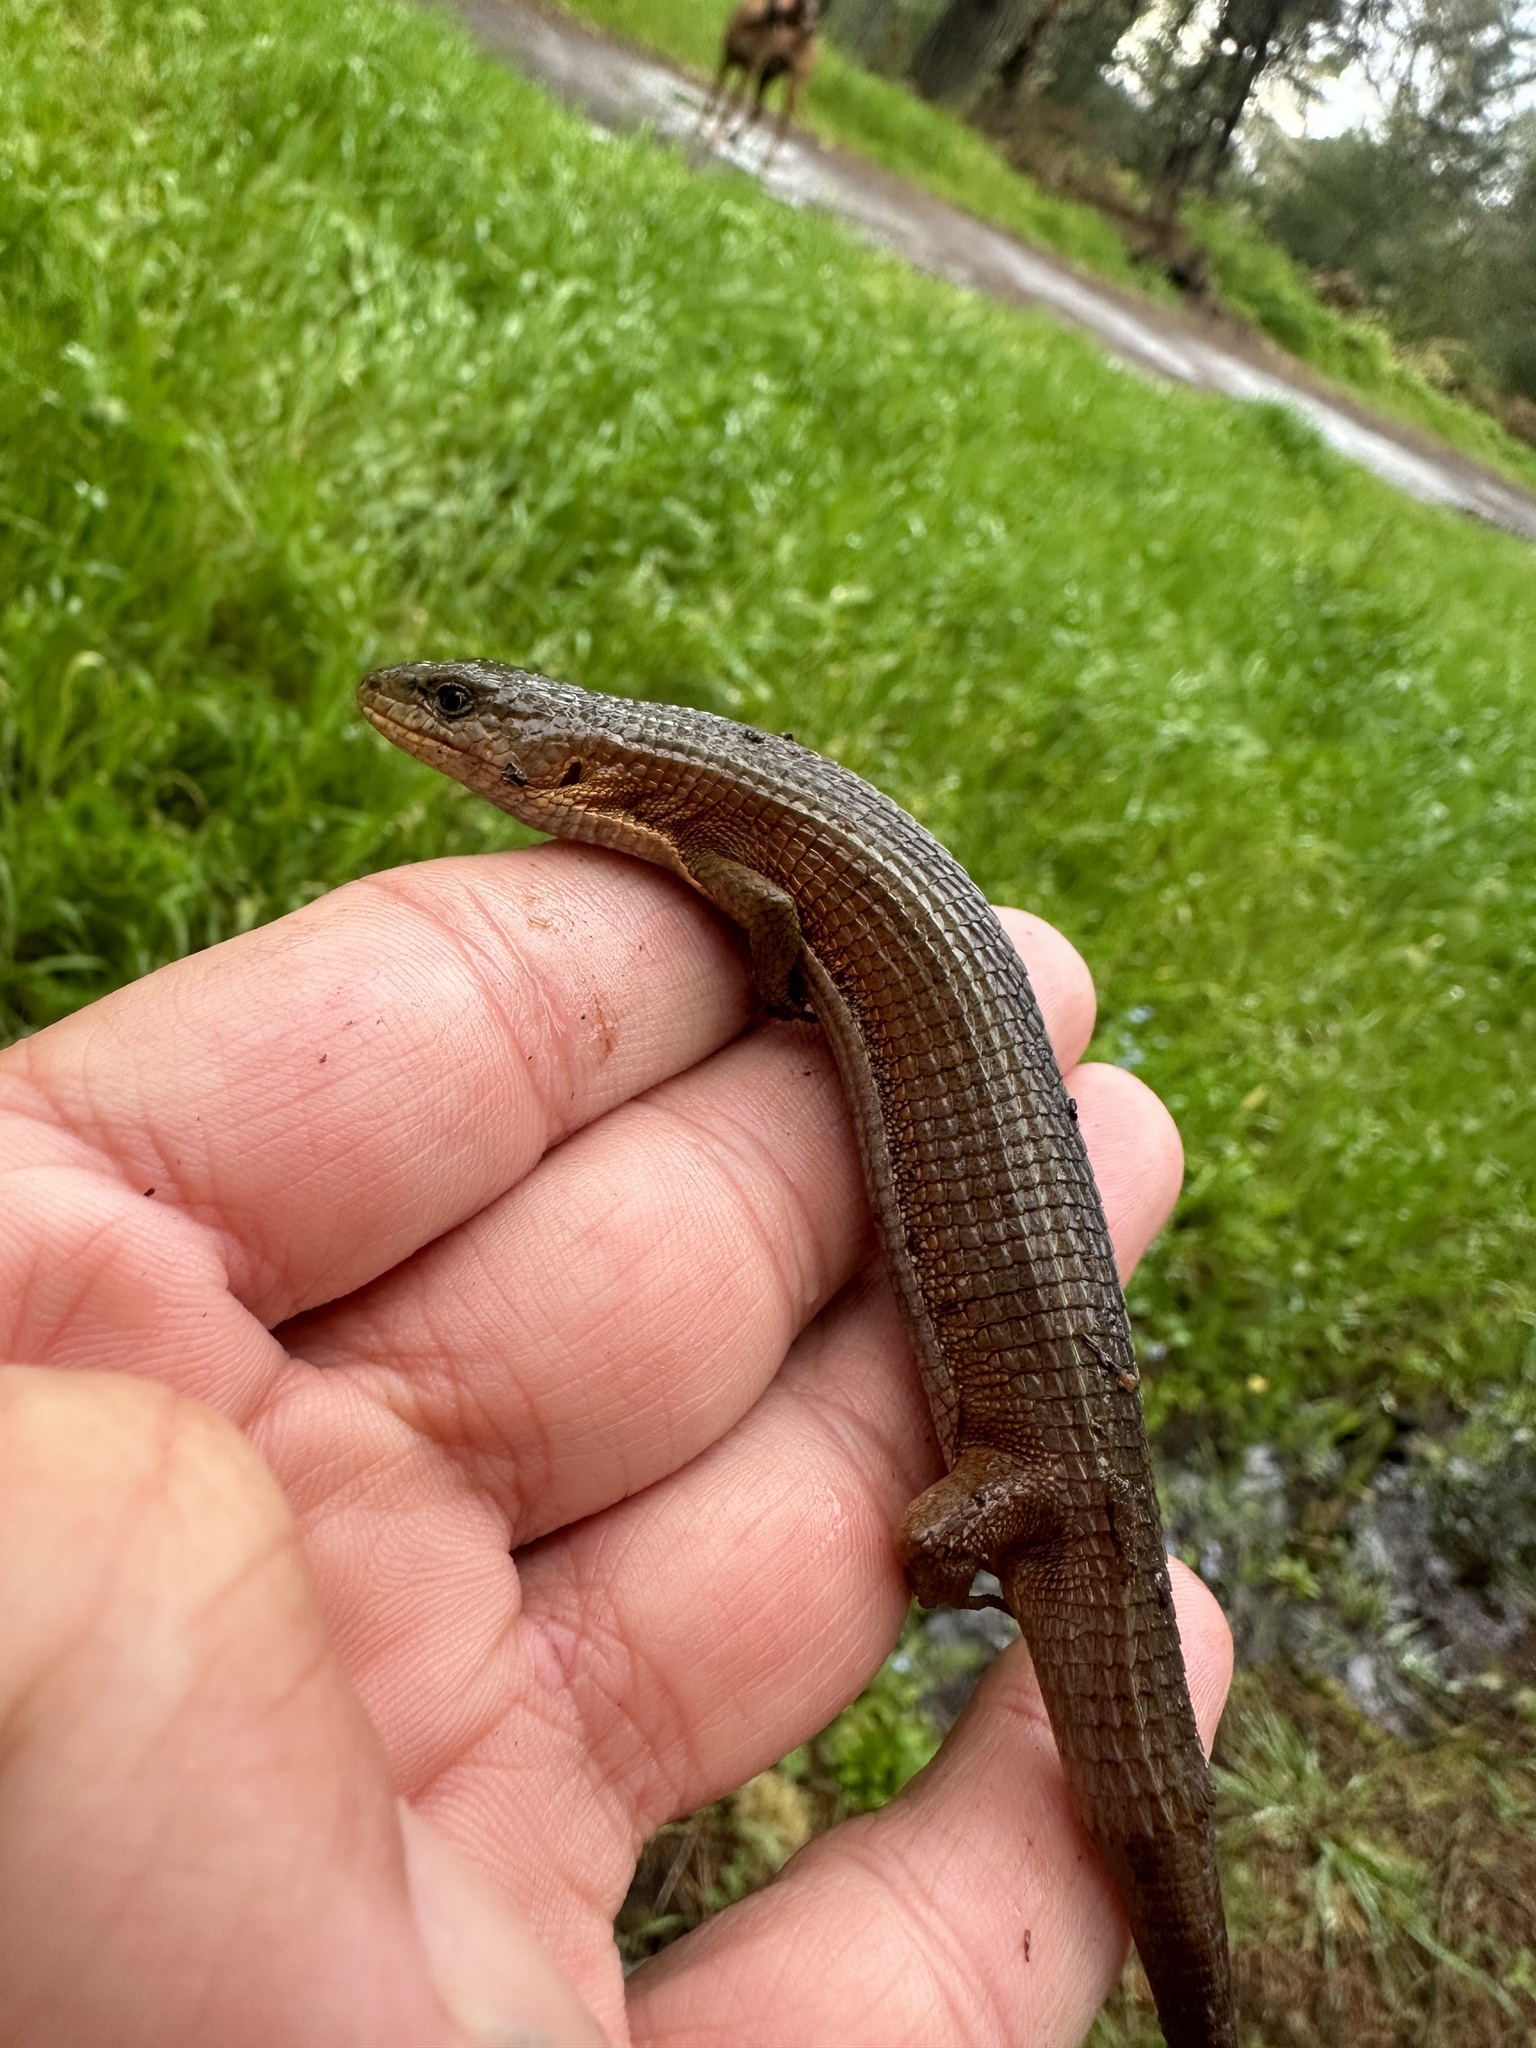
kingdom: Animalia
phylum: Chordata
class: Squamata
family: Anguidae
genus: Elgaria
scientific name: Elgaria coerulea
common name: Northern alligator lizard
